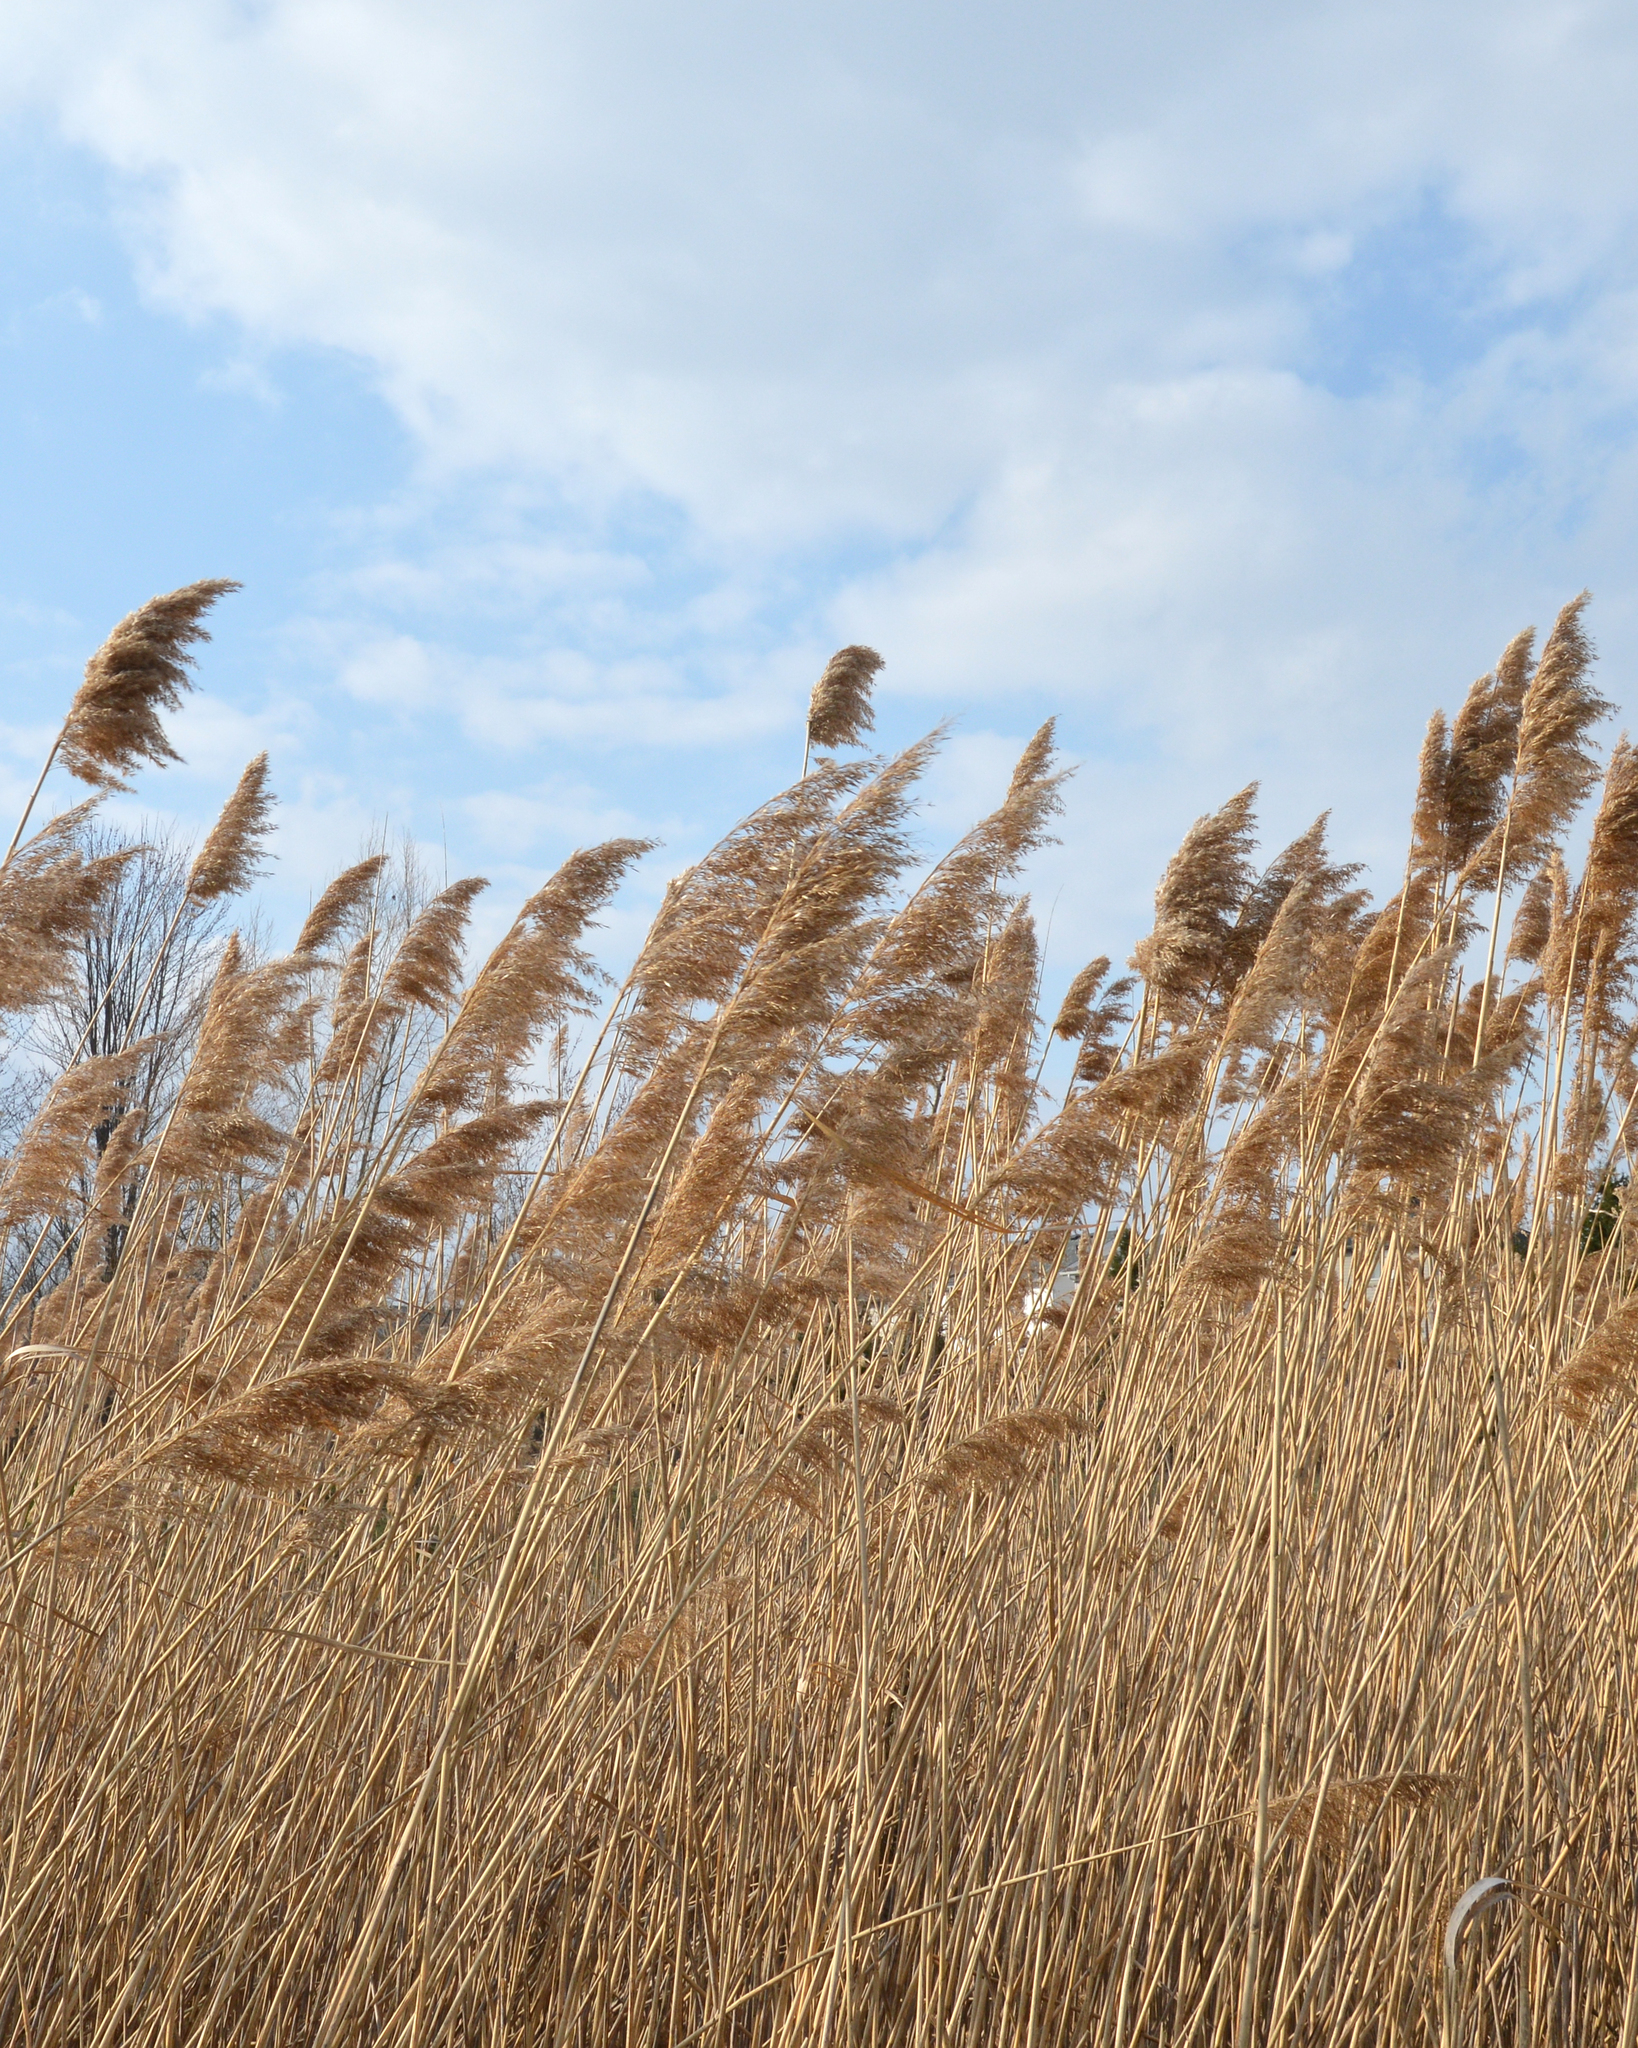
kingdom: Plantae
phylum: Tracheophyta
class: Liliopsida
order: Poales
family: Poaceae
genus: Phragmites
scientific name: Phragmites australis
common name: Common reed
